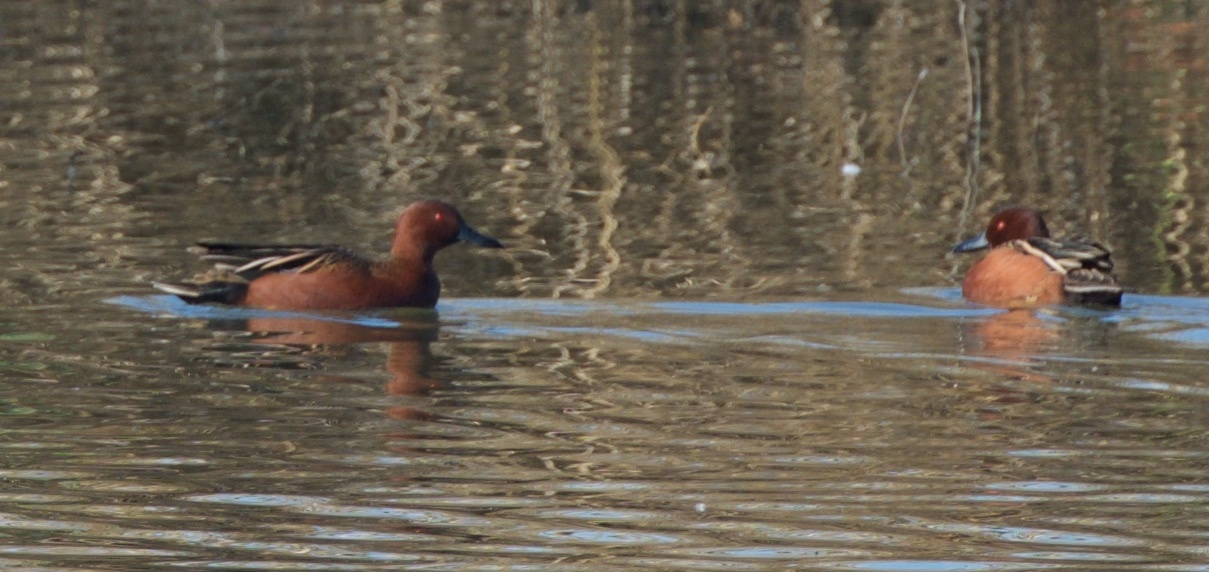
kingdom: Animalia
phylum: Chordata
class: Aves
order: Anseriformes
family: Anatidae
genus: Spatula
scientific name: Spatula cyanoptera
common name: Cinnamon teal
